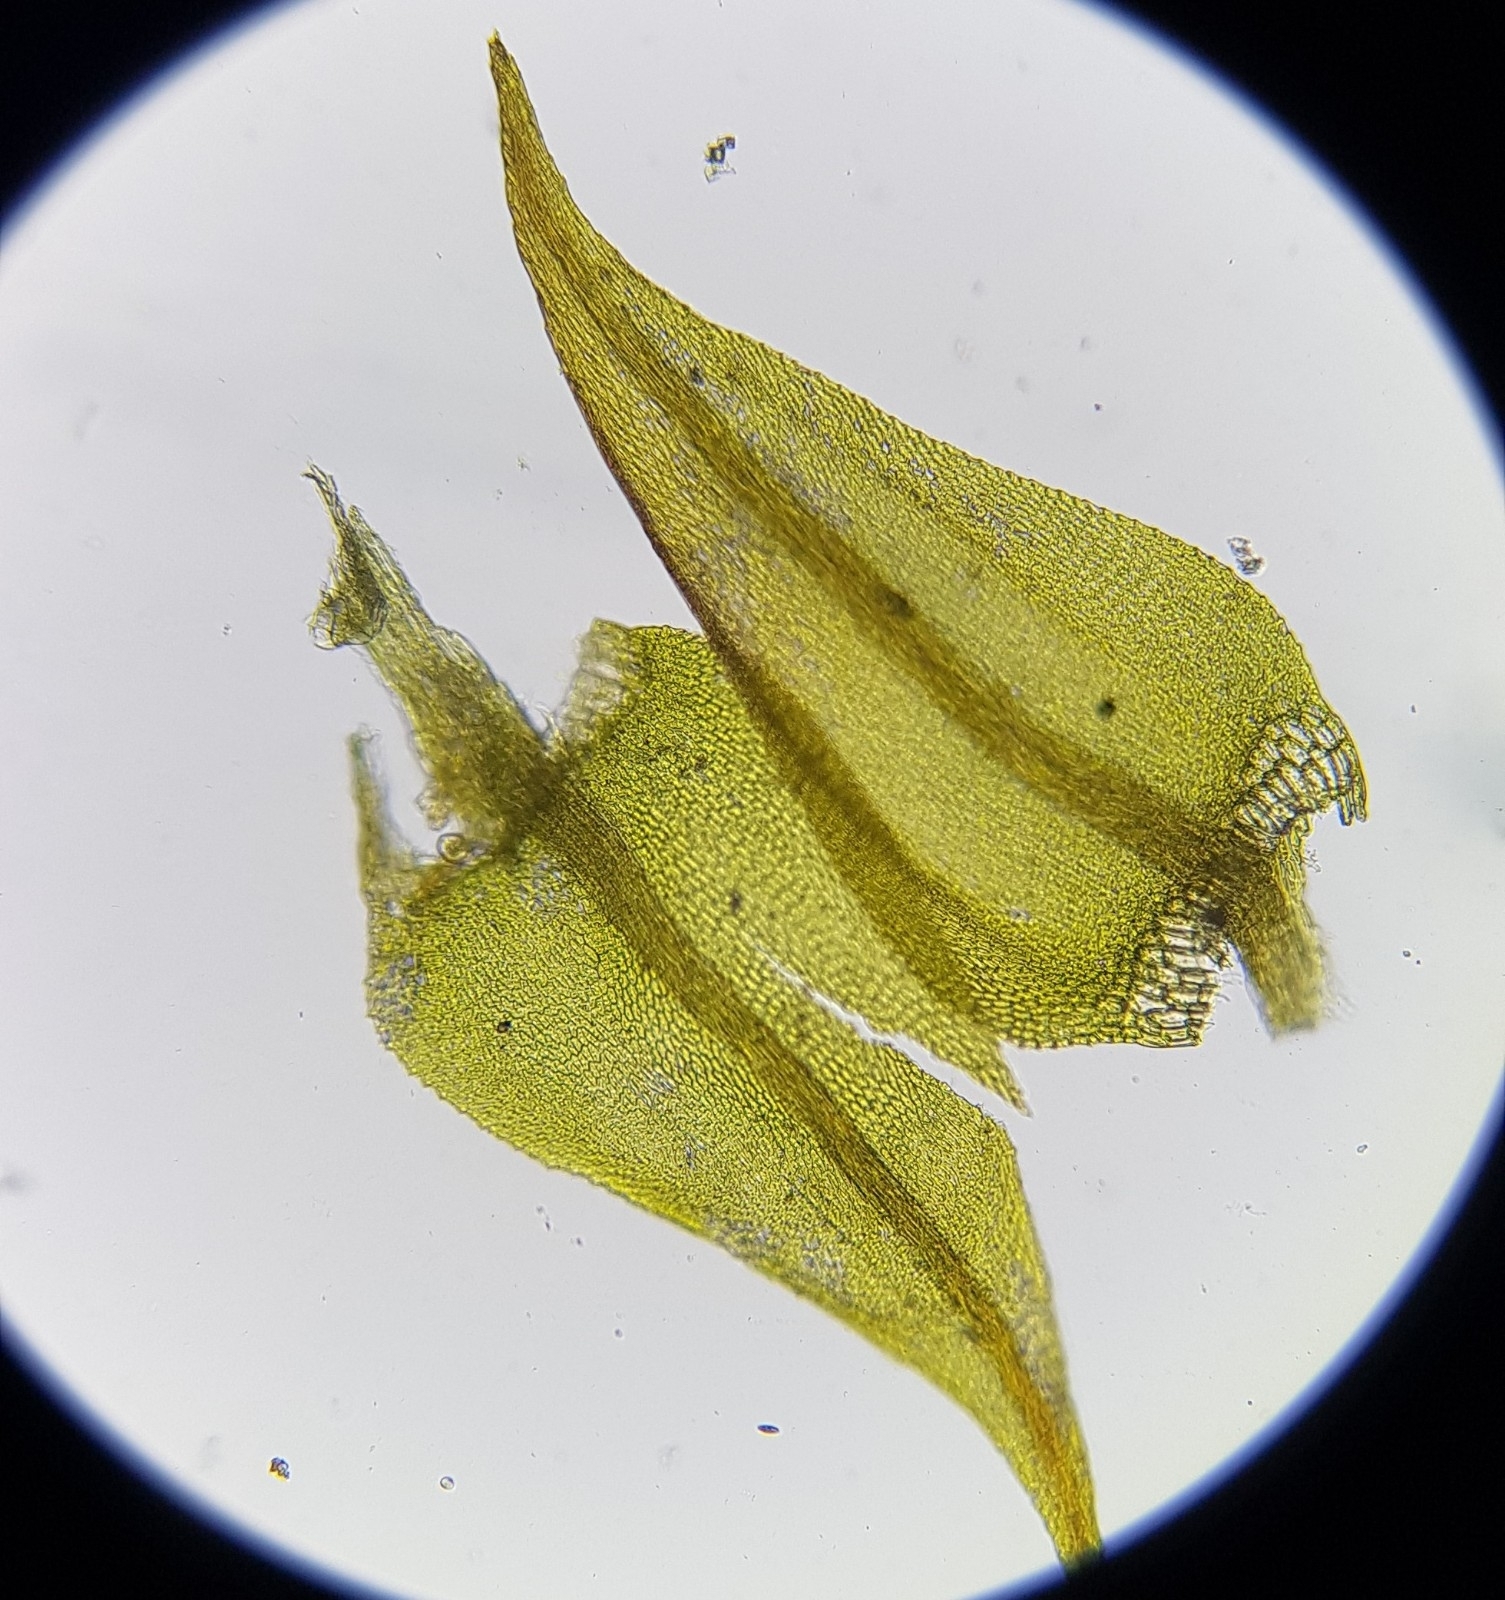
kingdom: Plantae
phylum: Bryophyta
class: Bryopsida
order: Hypnales
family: Amblystegiaceae
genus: Cratoneuron
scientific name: Cratoneuron filicinum
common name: Fern-leaved hook moss
